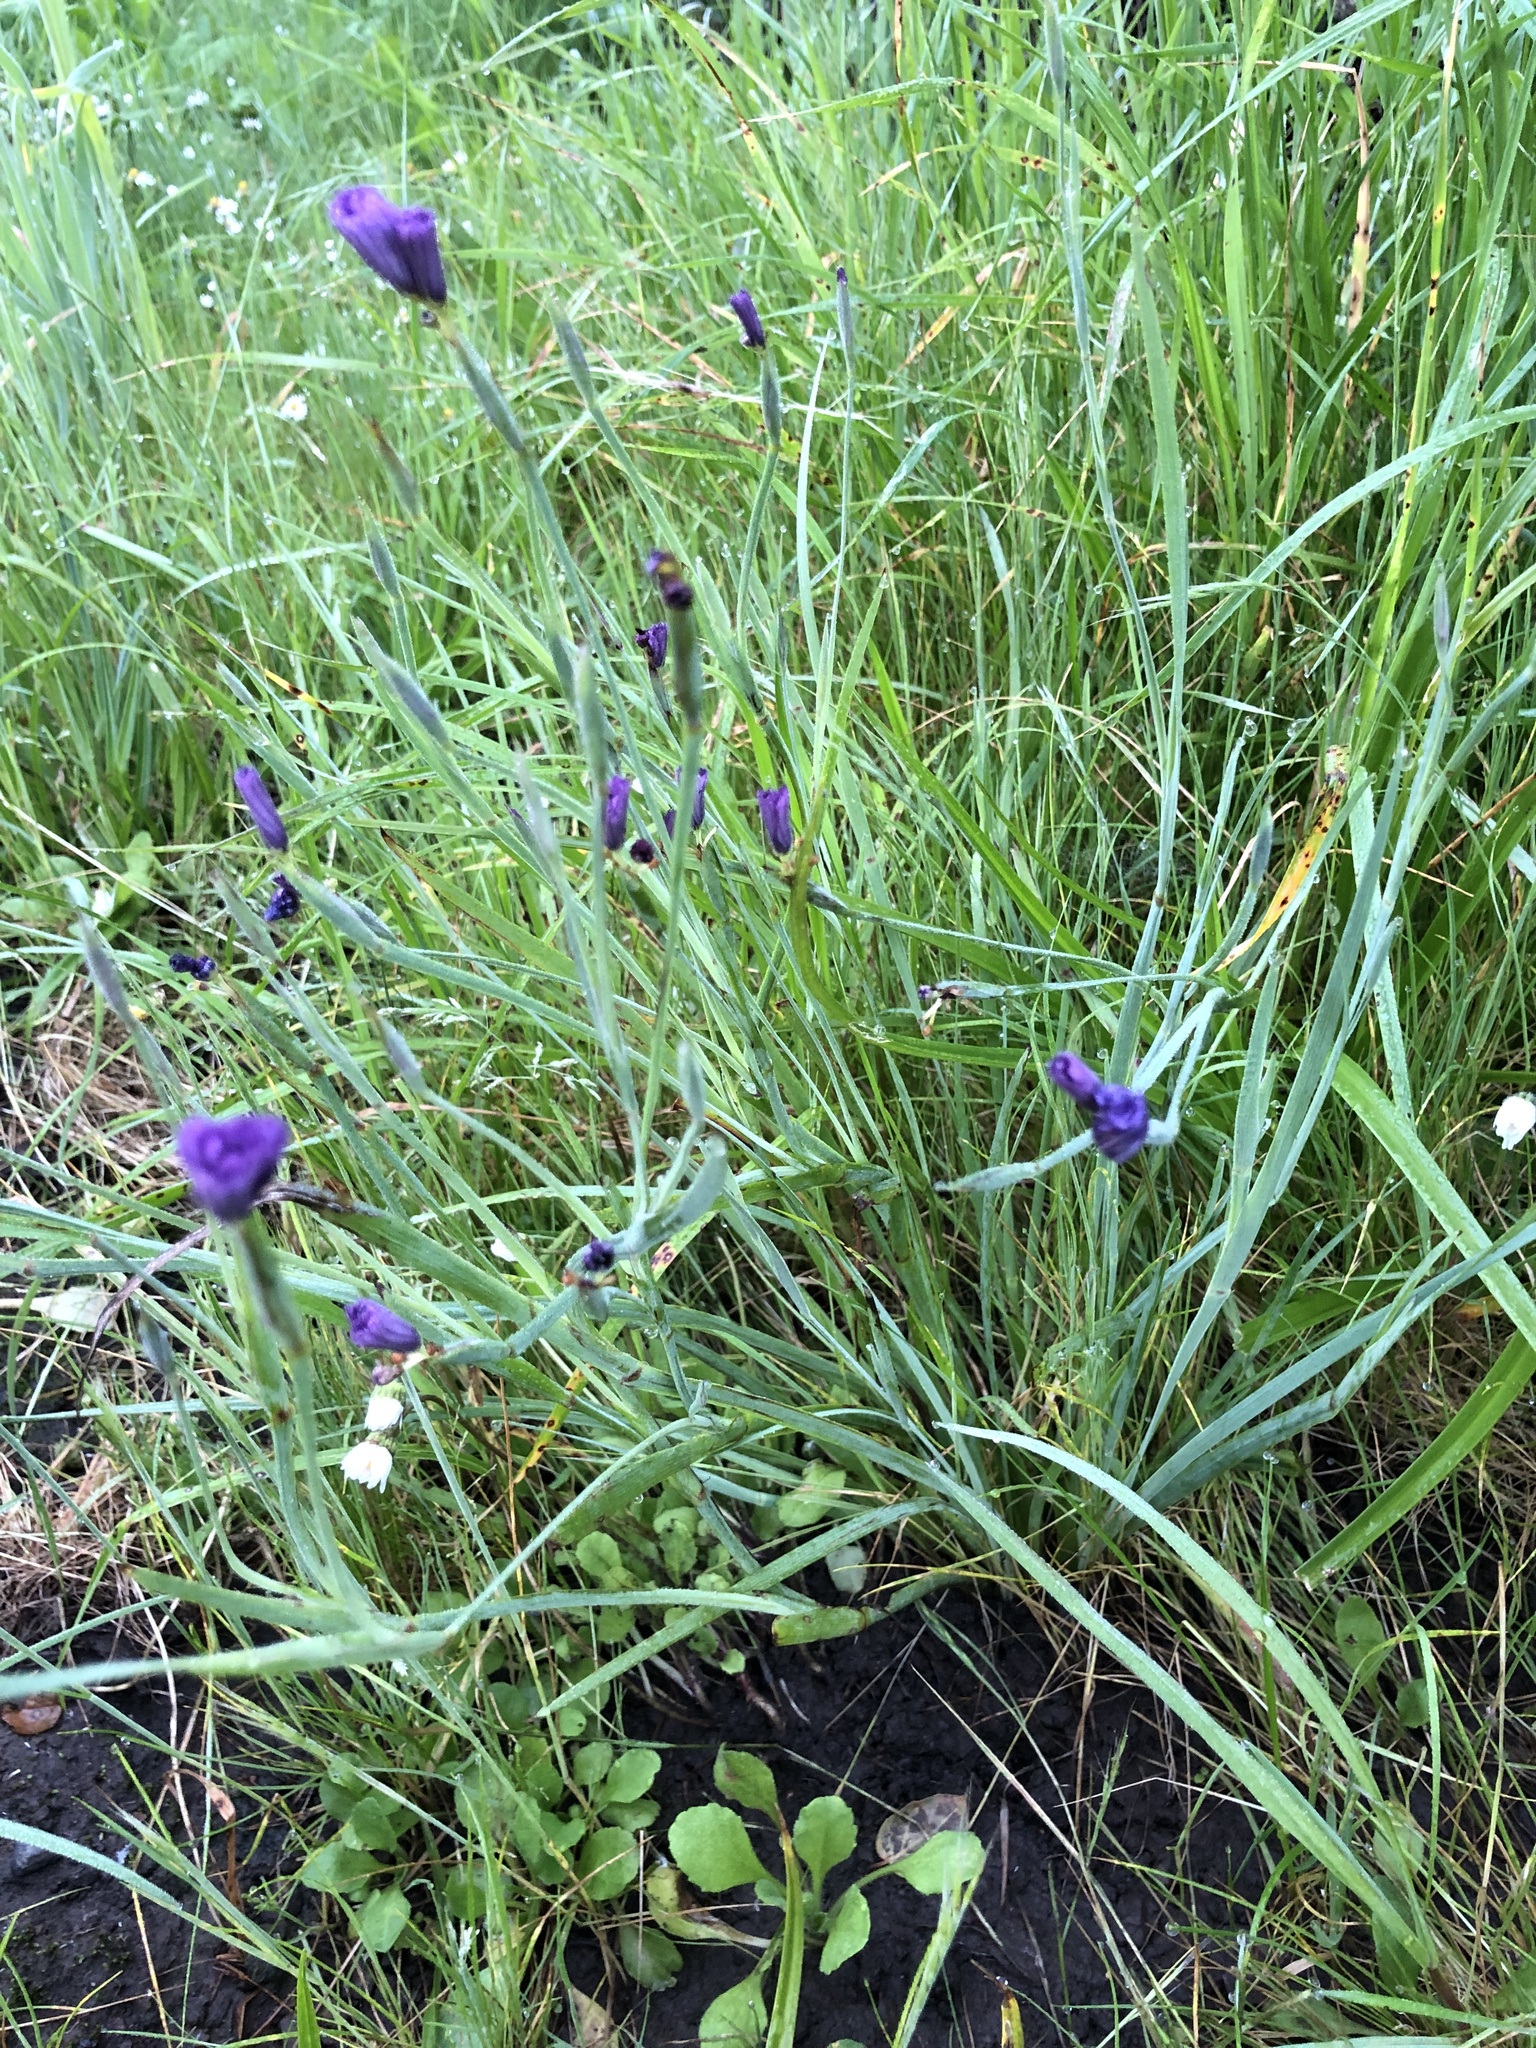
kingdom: Plantae
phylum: Tracheophyta
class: Liliopsida
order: Asparagales
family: Iridaceae
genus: Sisyrinchium
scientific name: Sisyrinchium bellum
